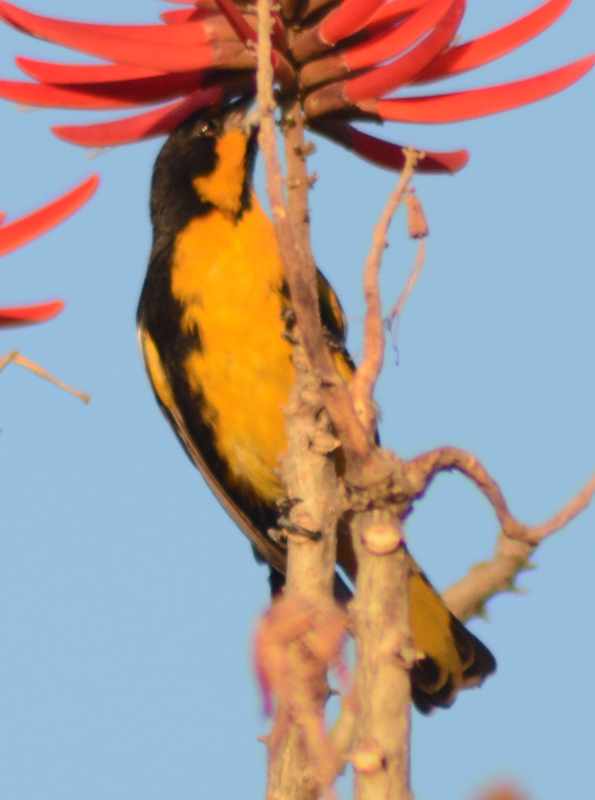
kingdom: Animalia
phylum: Chordata
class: Aves
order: Passeriformes
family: Icteridae
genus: Icterus
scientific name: Icterus abeillei
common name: Black-backed oriole
